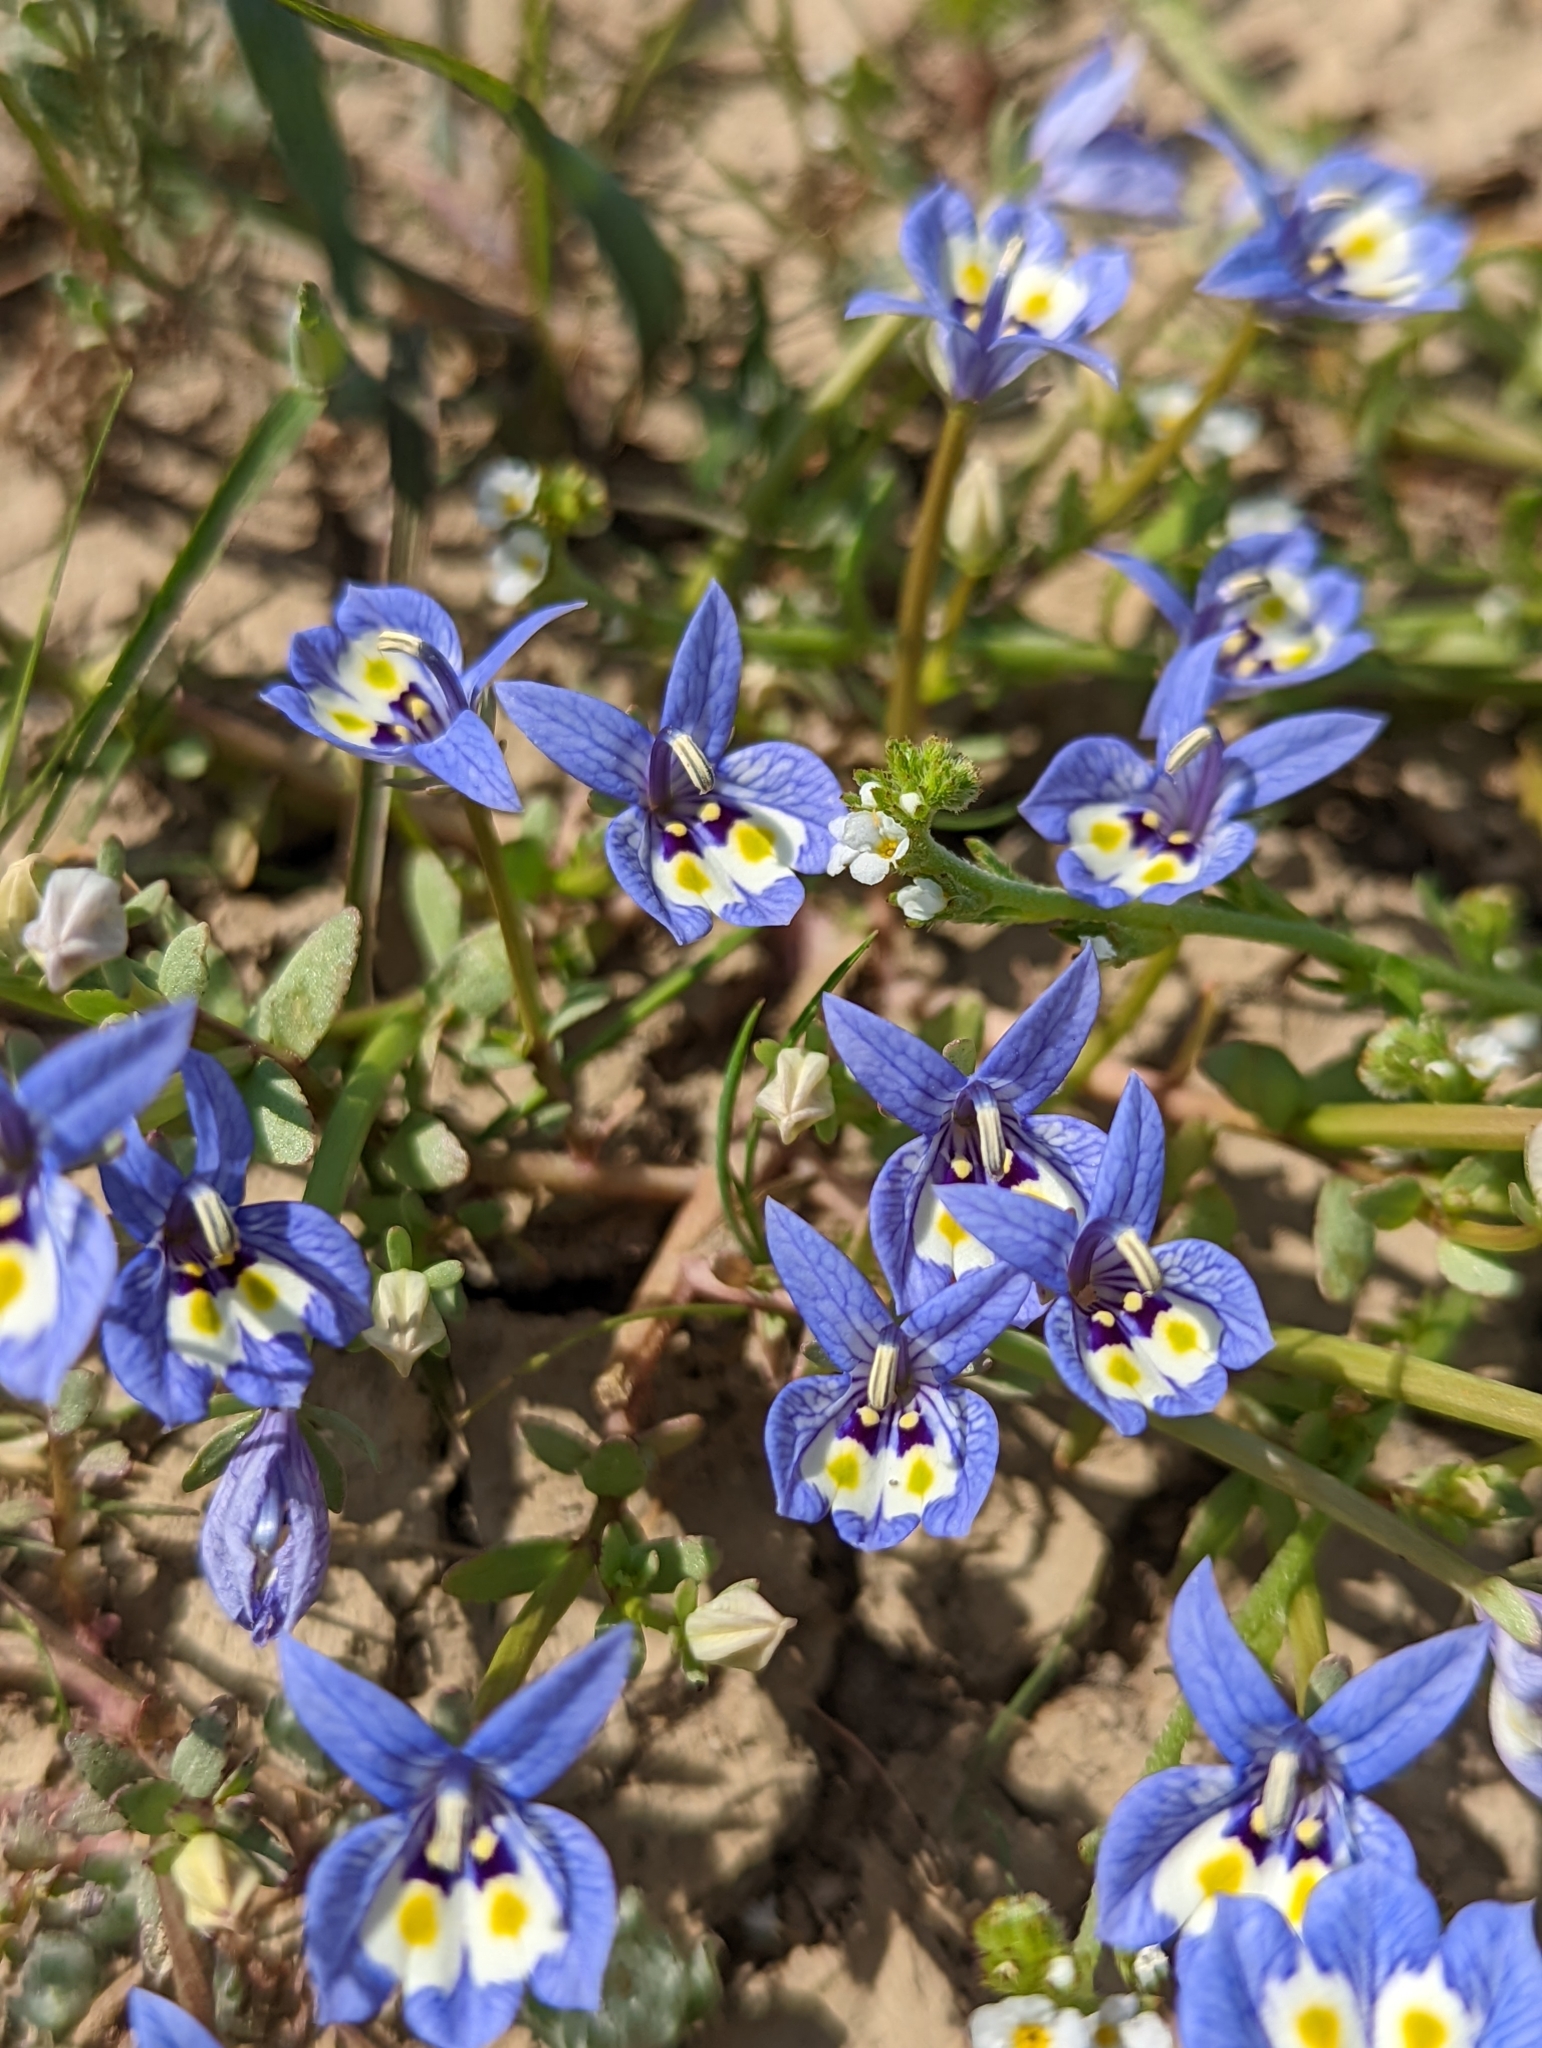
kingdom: Plantae
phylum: Tracheophyta
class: Magnoliopsida
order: Asterales
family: Campanulaceae
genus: Downingia
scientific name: Downingia insignis
